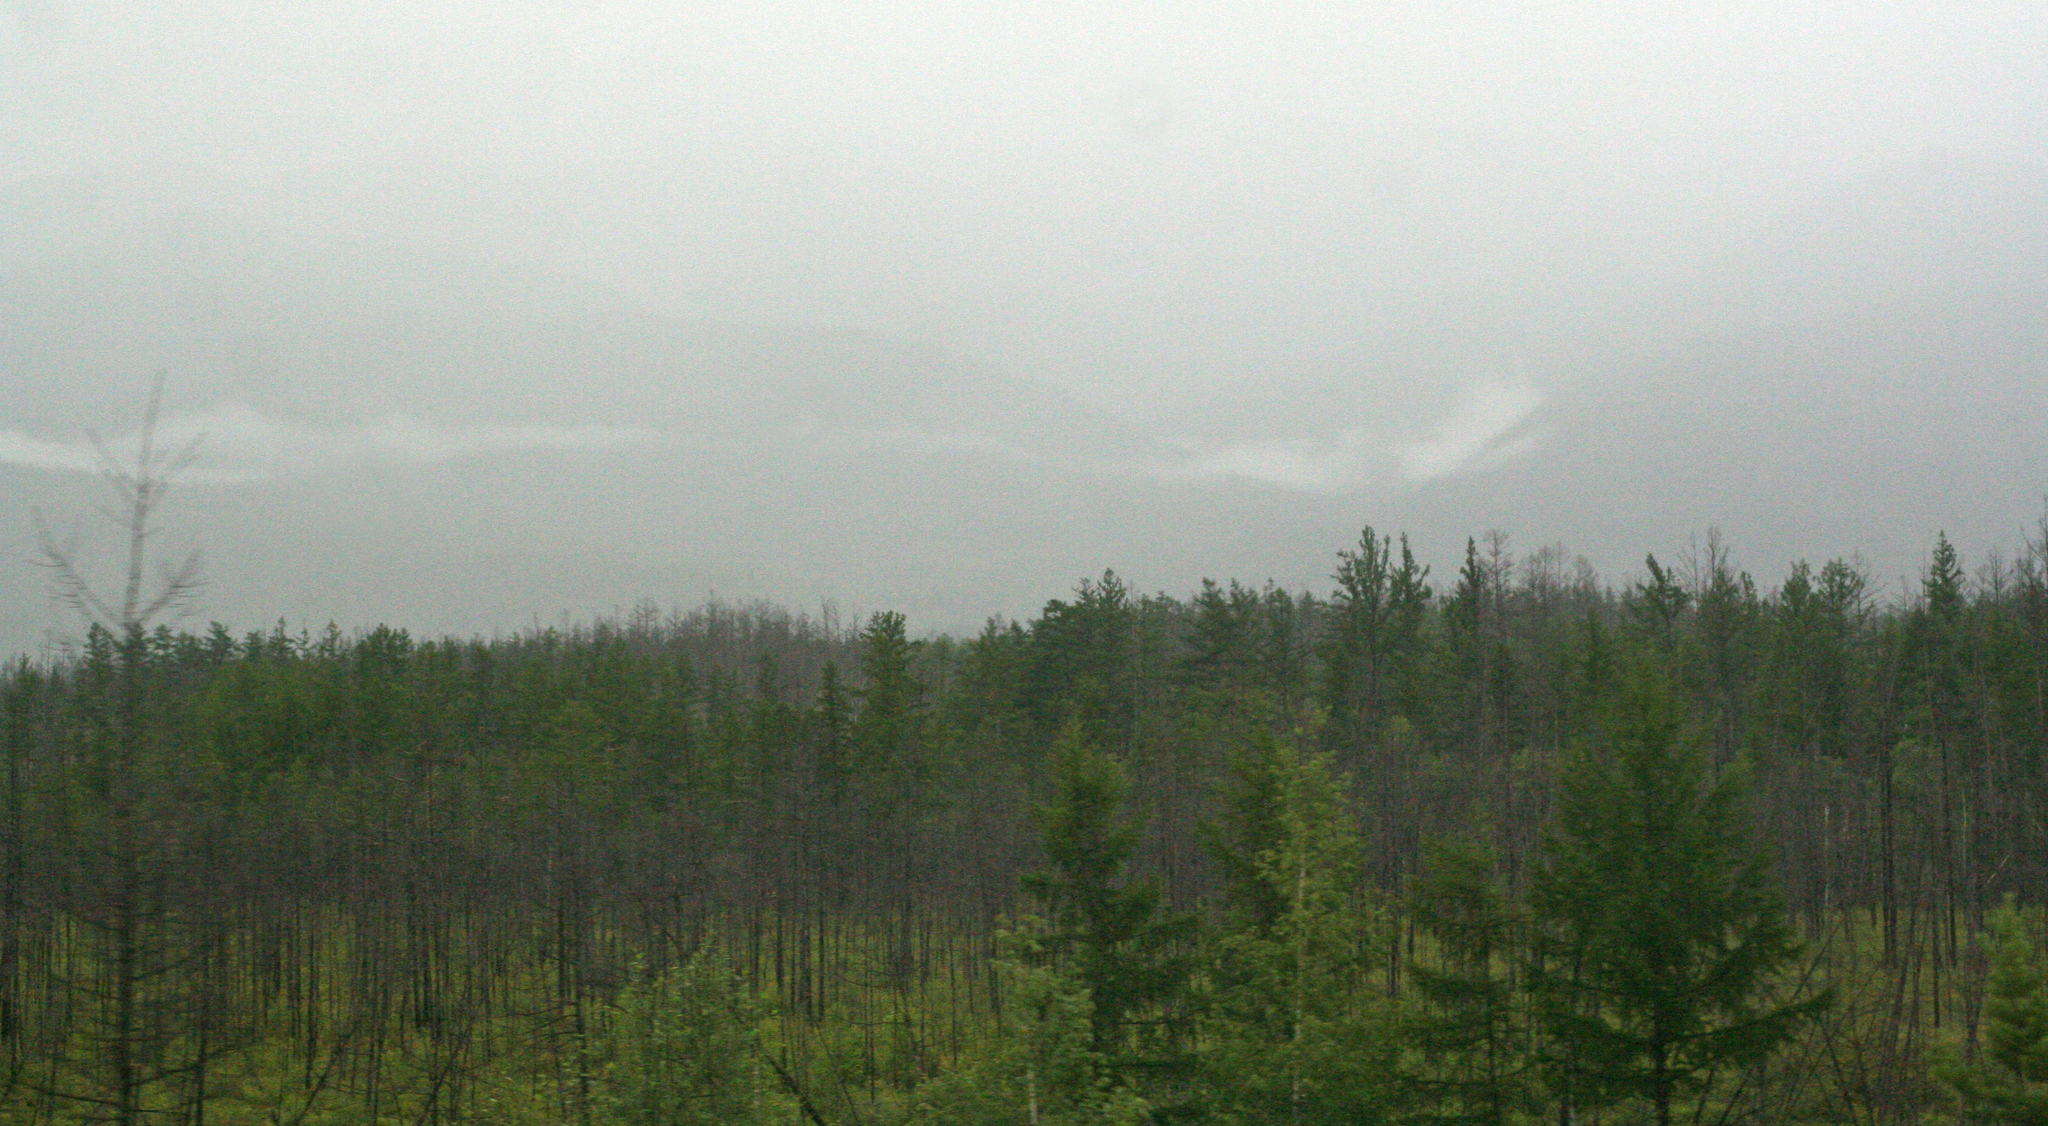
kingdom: Plantae
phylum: Tracheophyta
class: Pinopsida
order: Pinales
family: Pinaceae
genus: Larix
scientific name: Larix gmelinii
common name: Dahurian larch
